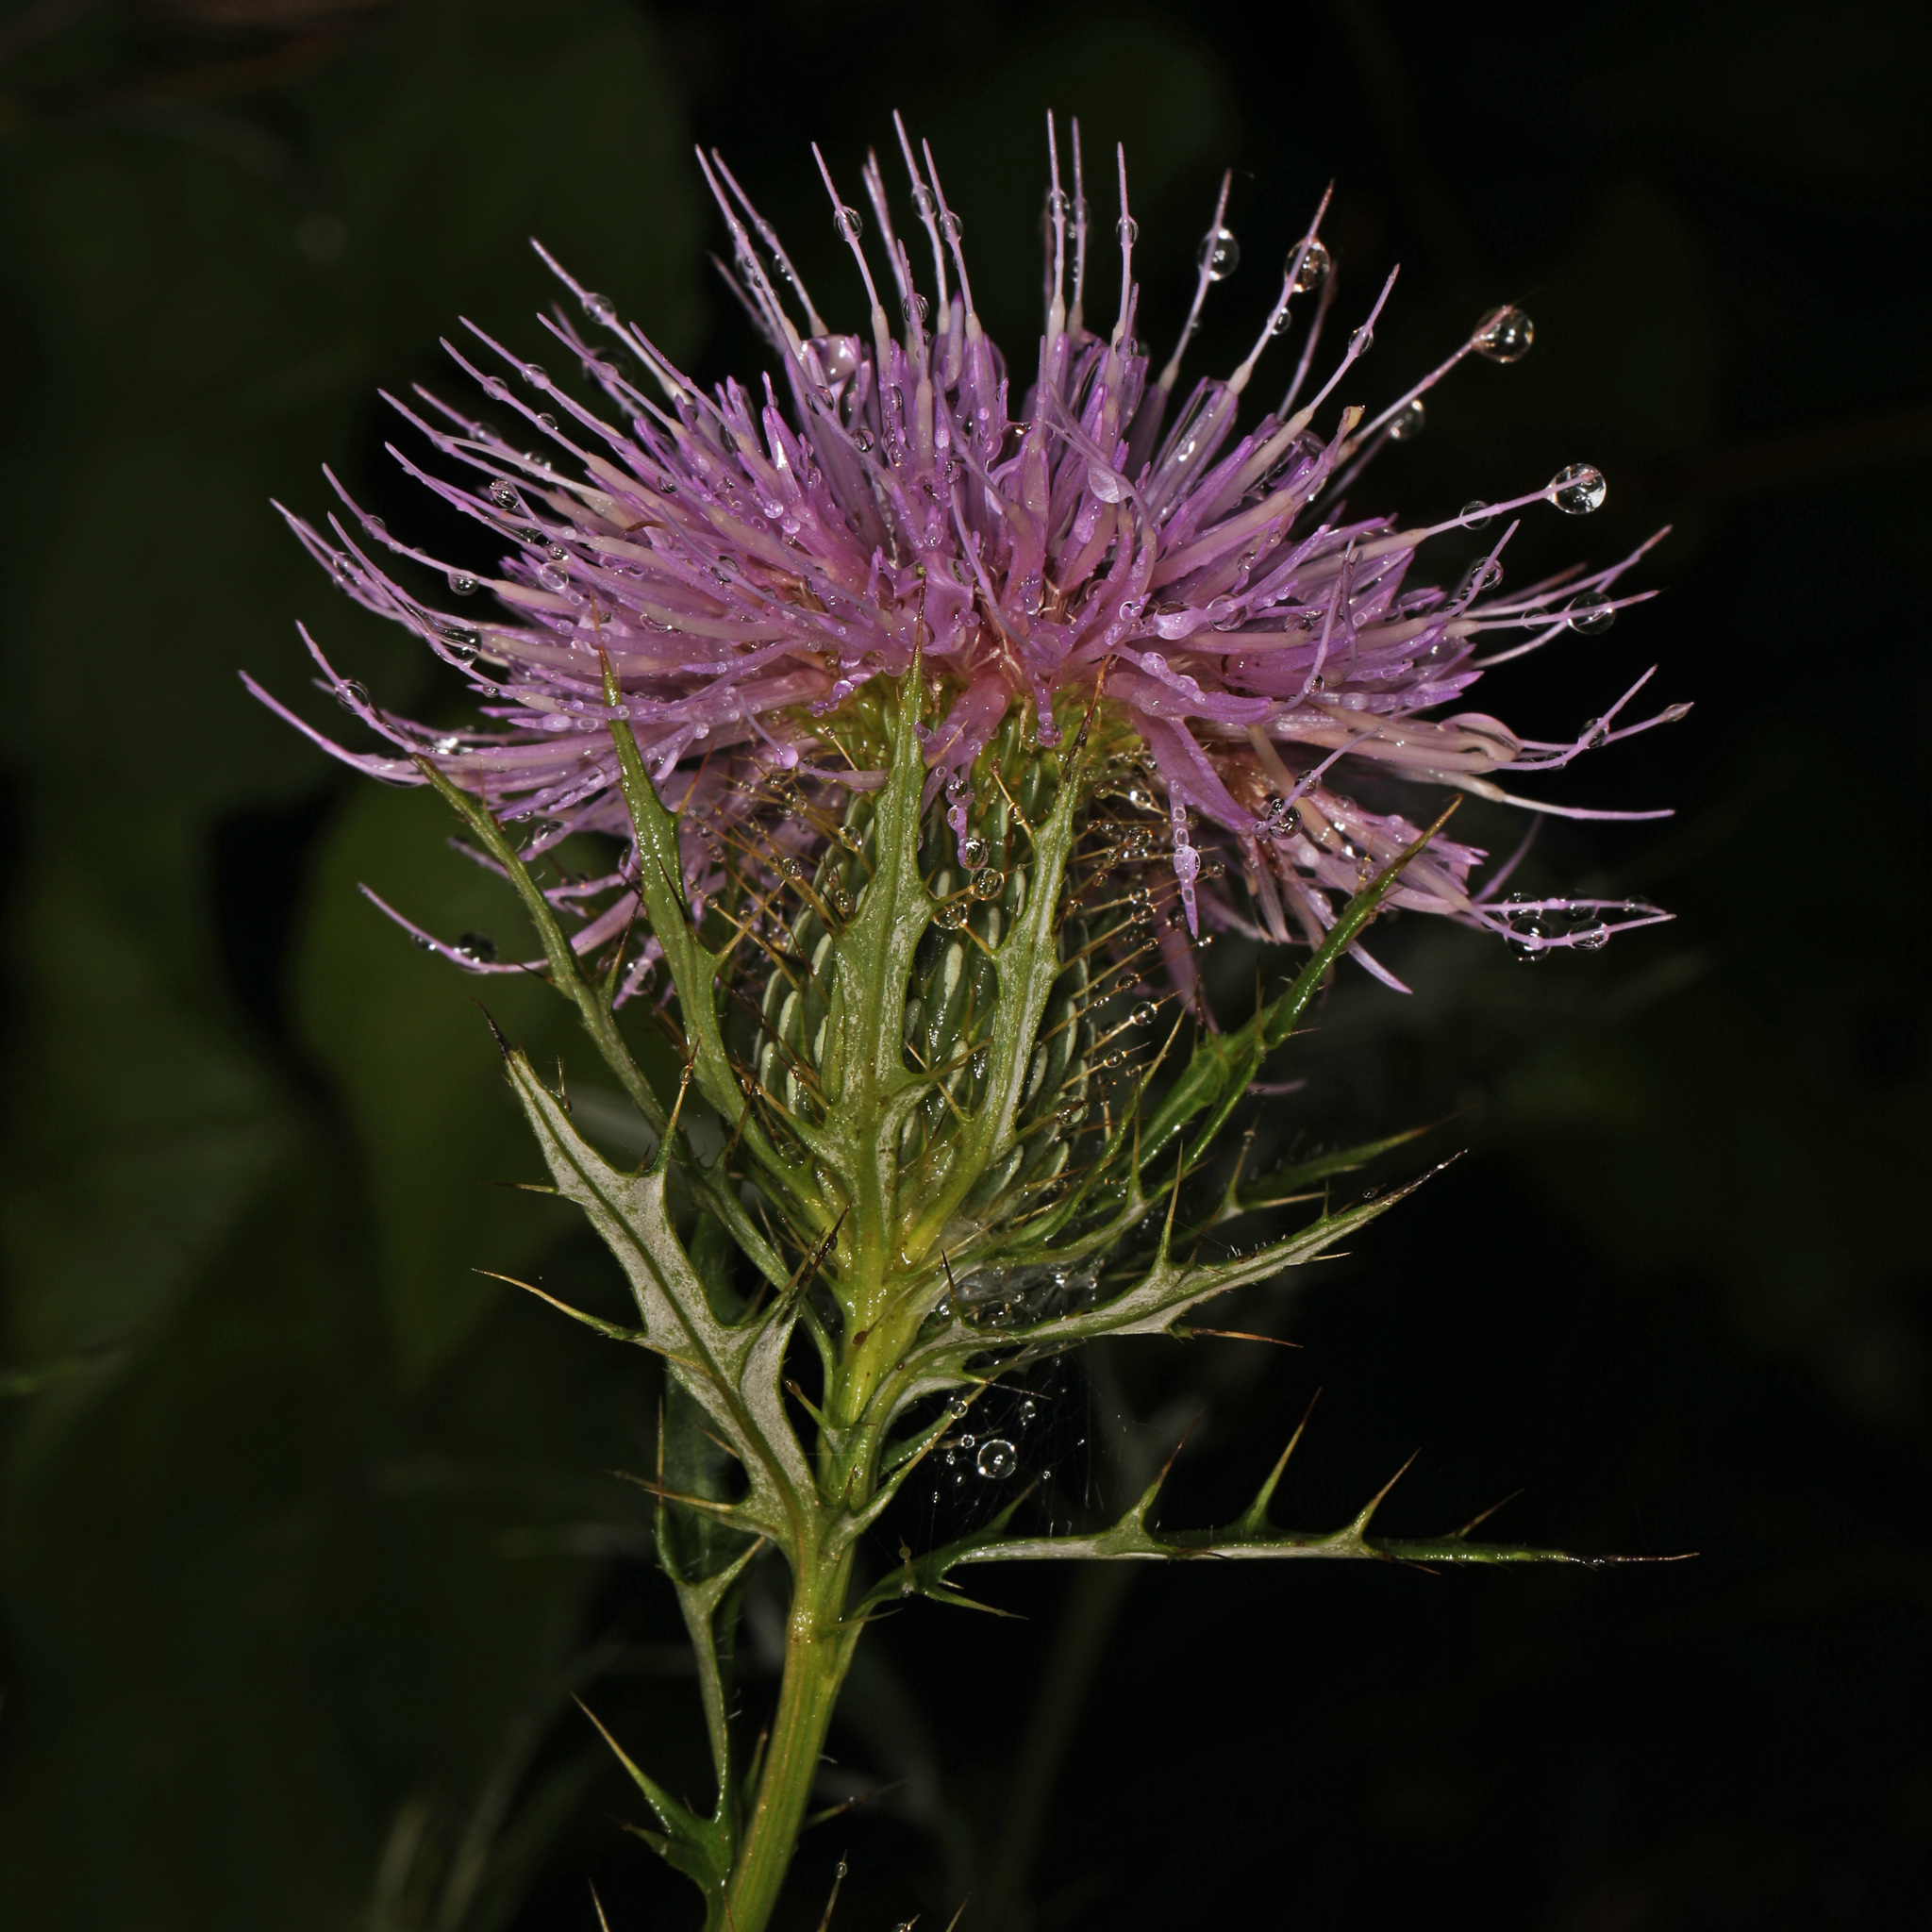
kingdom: Plantae
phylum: Tracheophyta
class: Magnoliopsida
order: Asterales
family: Asteraceae
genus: Cirsium
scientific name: Cirsium discolor
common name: Field thistle
